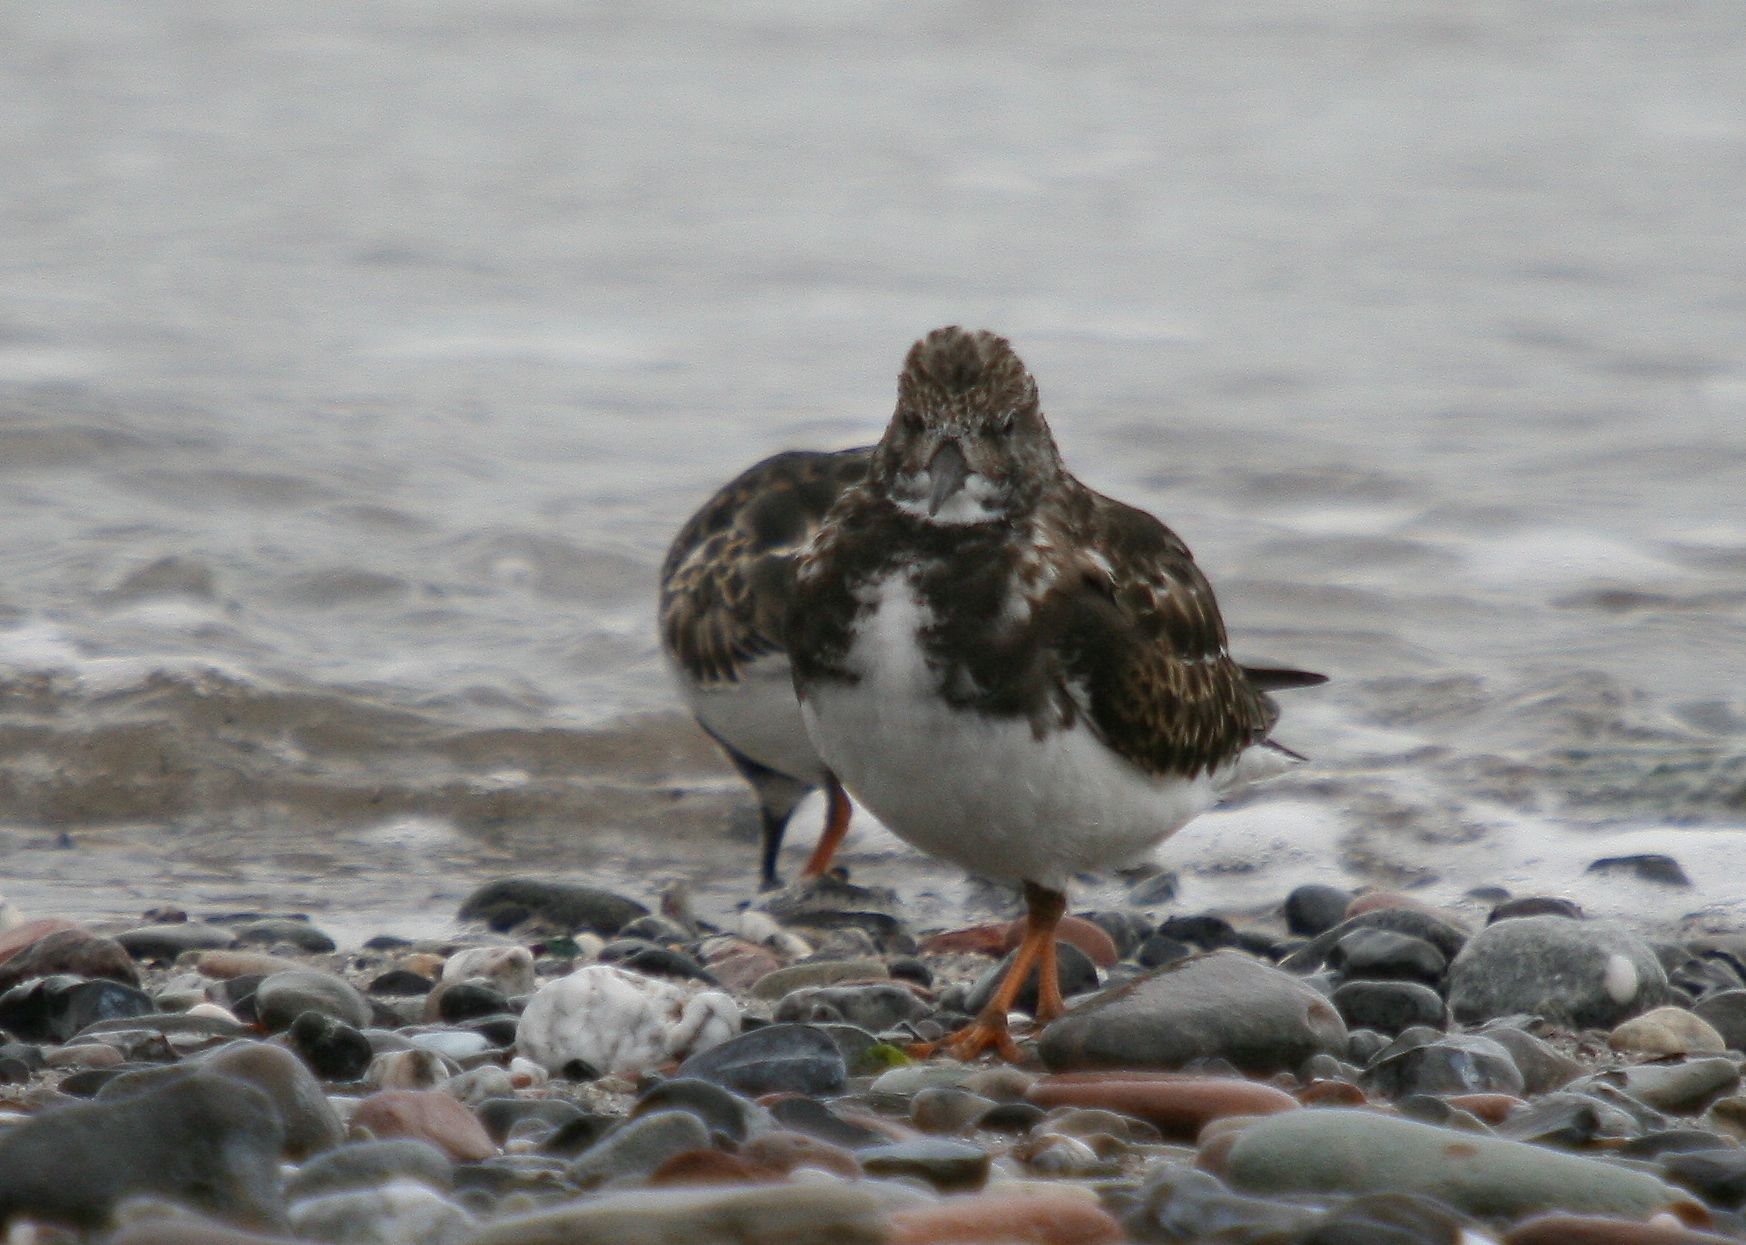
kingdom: Animalia
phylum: Chordata
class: Aves
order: Charadriiformes
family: Scolopacidae
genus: Arenaria
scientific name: Arenaria interpres
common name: Ruddy turnstone
